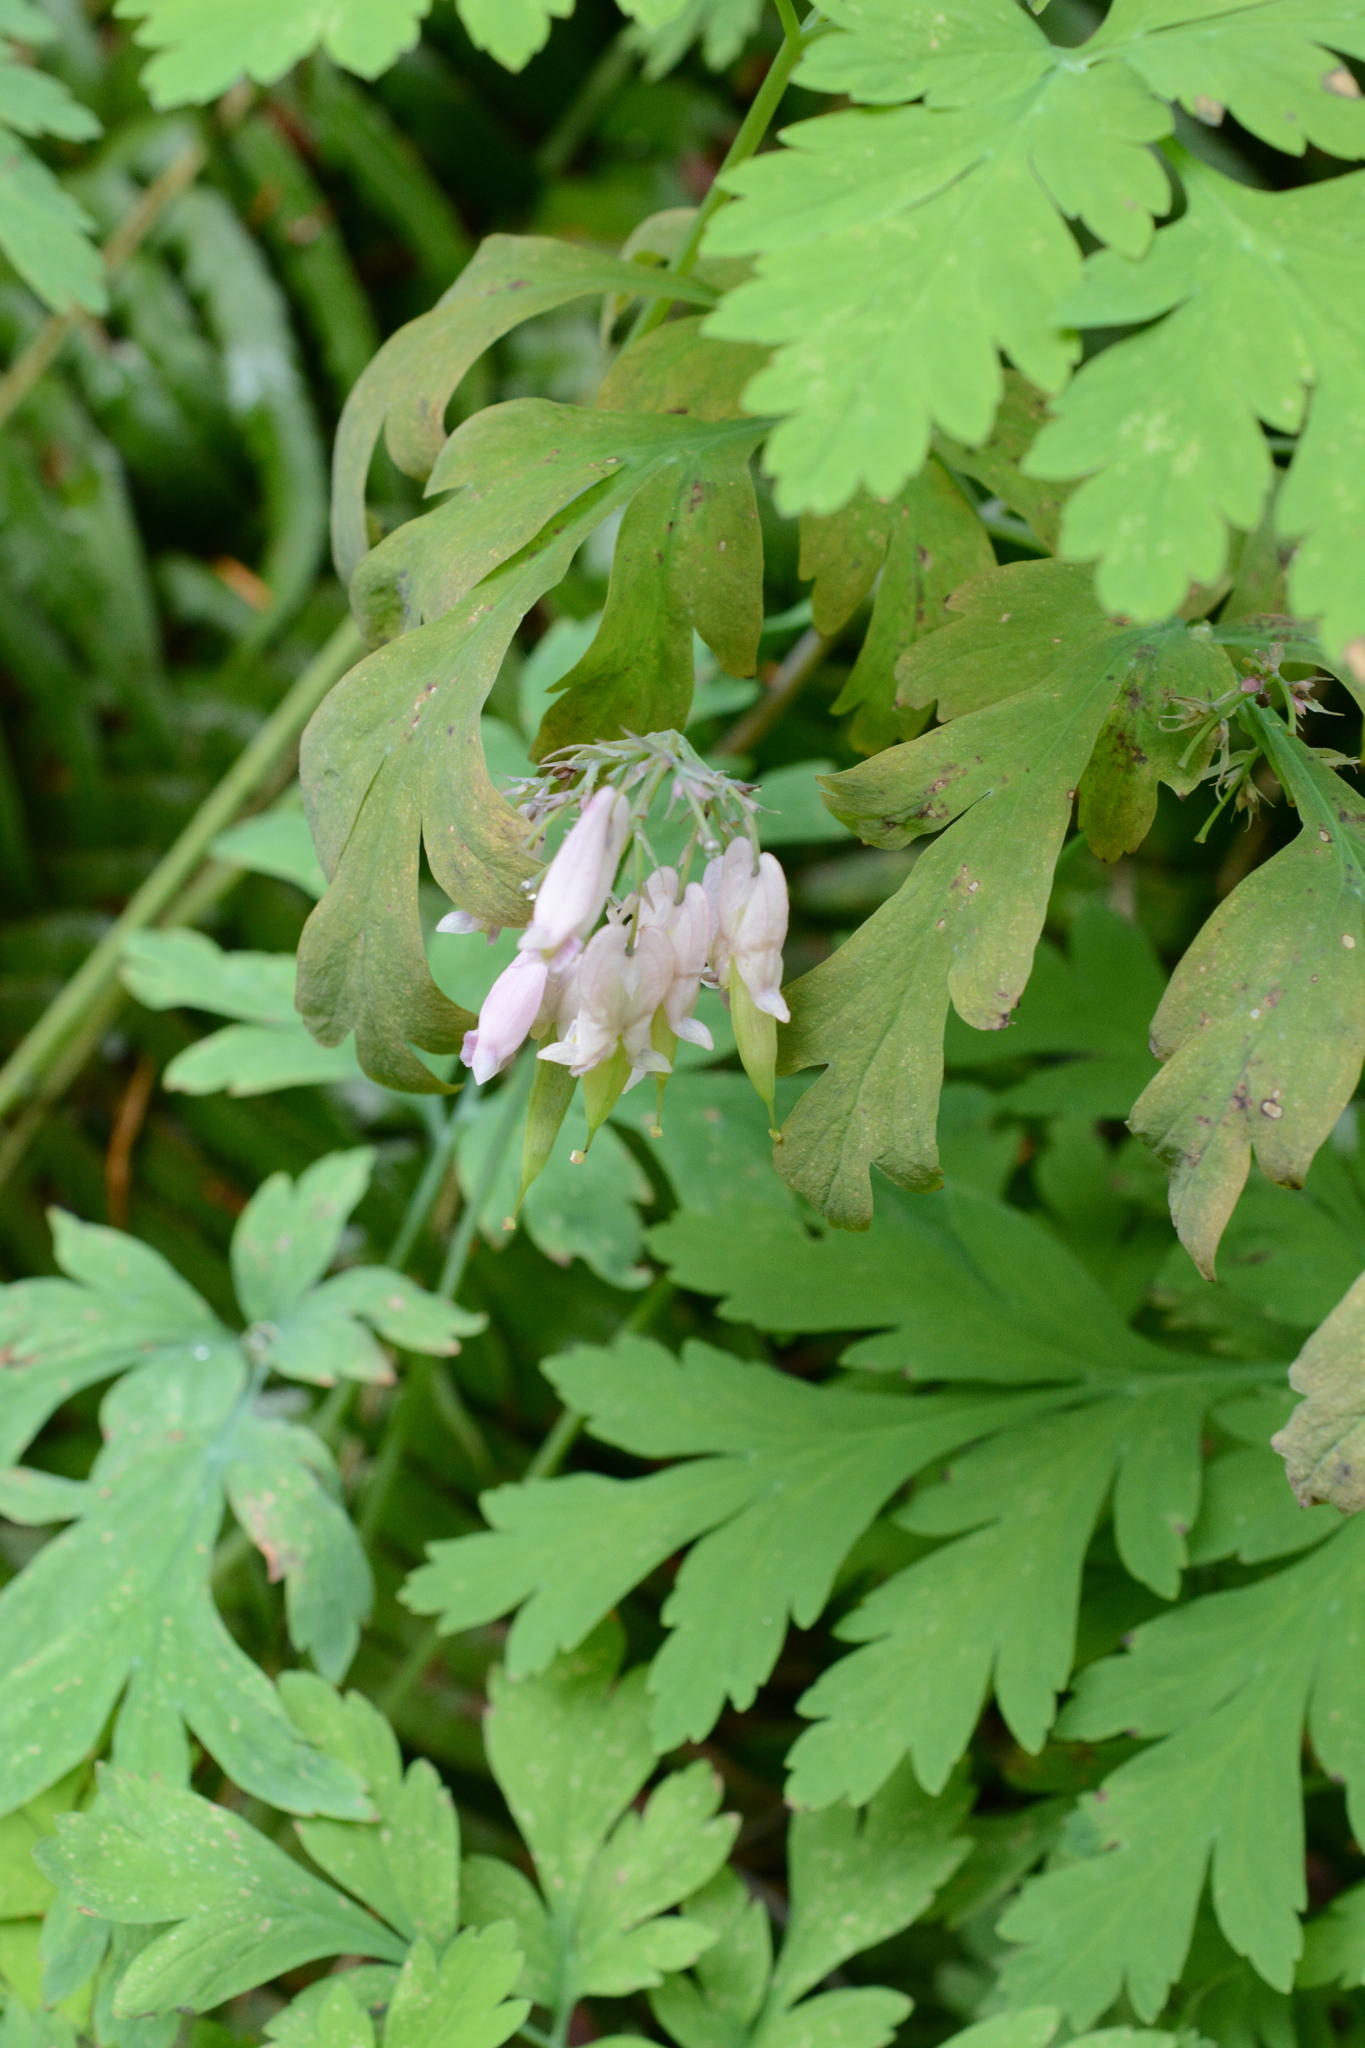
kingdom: Plantae
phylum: Tracheophyta
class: Magnoliopsida
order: Ranunculales
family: Papaveraceae
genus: Dicentra
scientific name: Dicentra formosa
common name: Bleeding-heart
